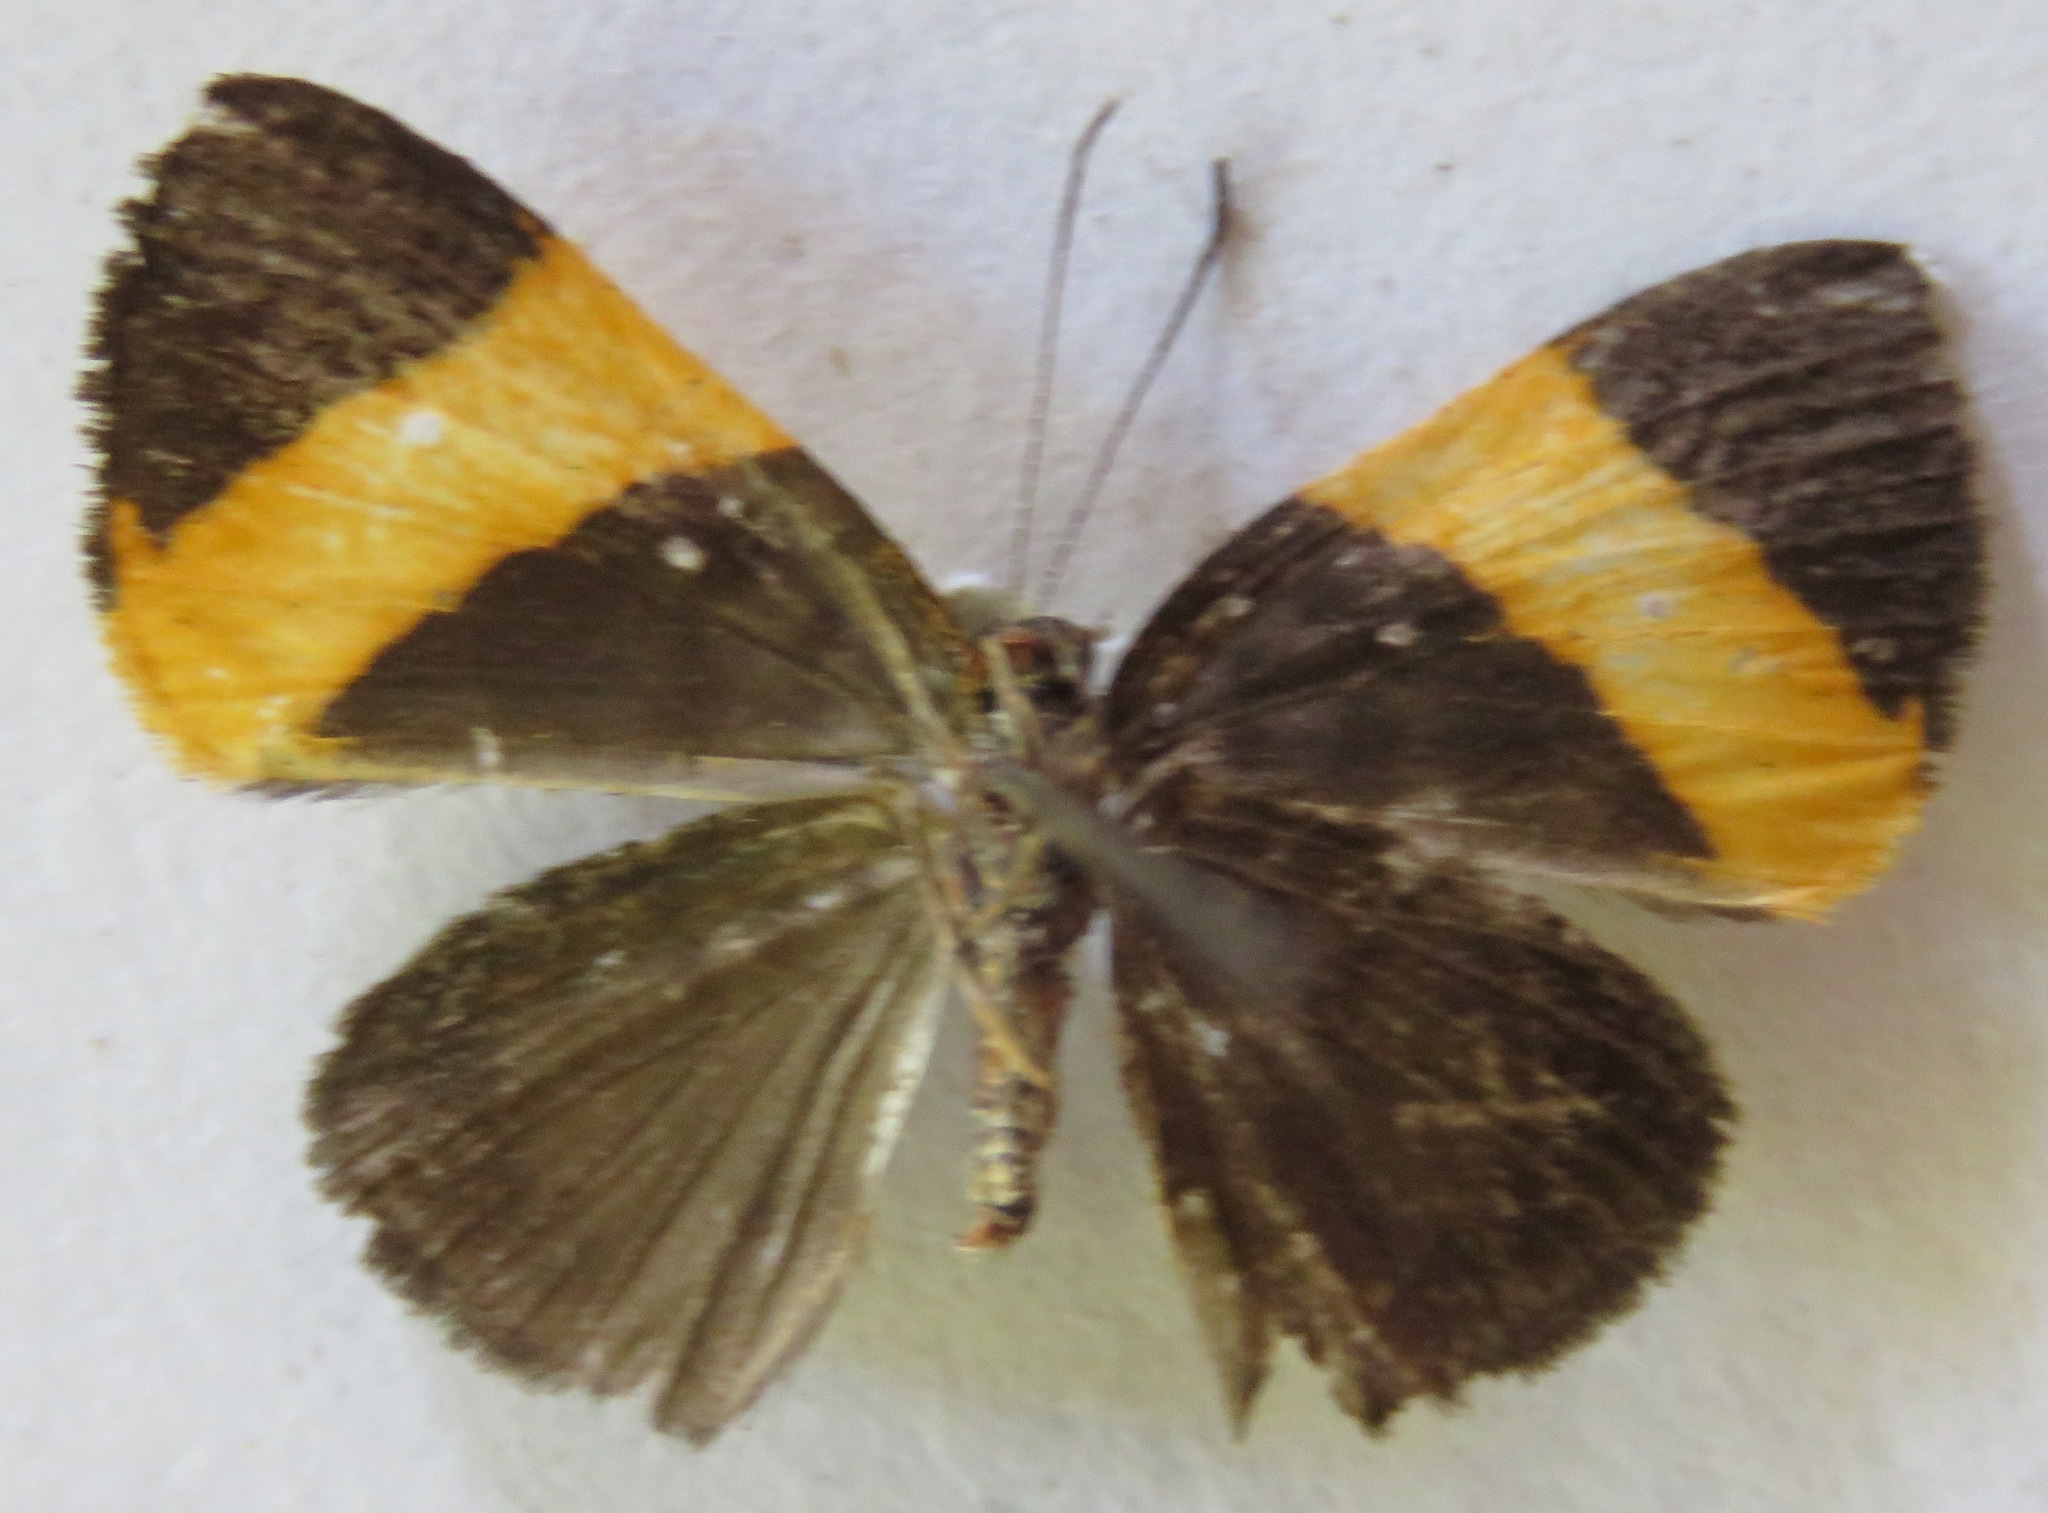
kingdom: Animalia
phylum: Arthropoda
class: Insecta
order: Lepidoptera
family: Riodinidae
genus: Pirascca
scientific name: Pirascca tyriotes
